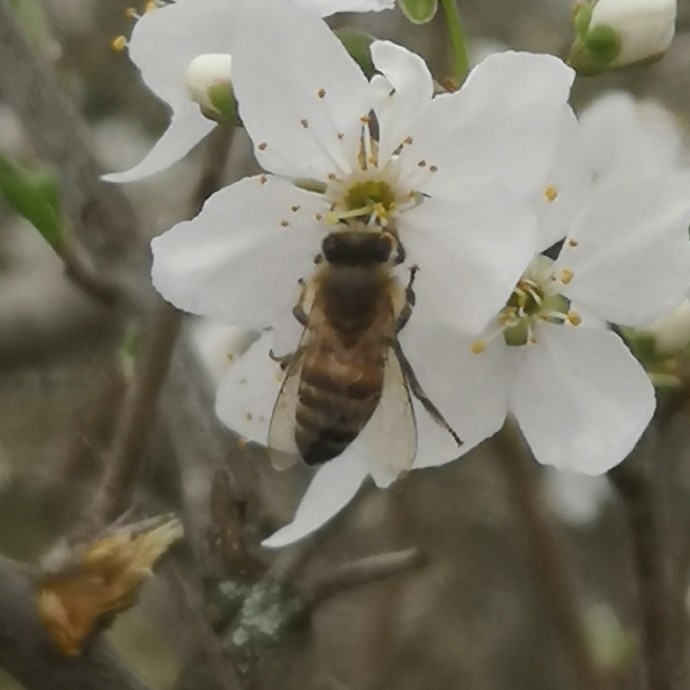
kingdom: Animalia
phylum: Arthropoda
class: Insecta
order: Hymenoptera
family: Apidae
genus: Apis
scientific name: Apis mellifera
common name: Honey bee
